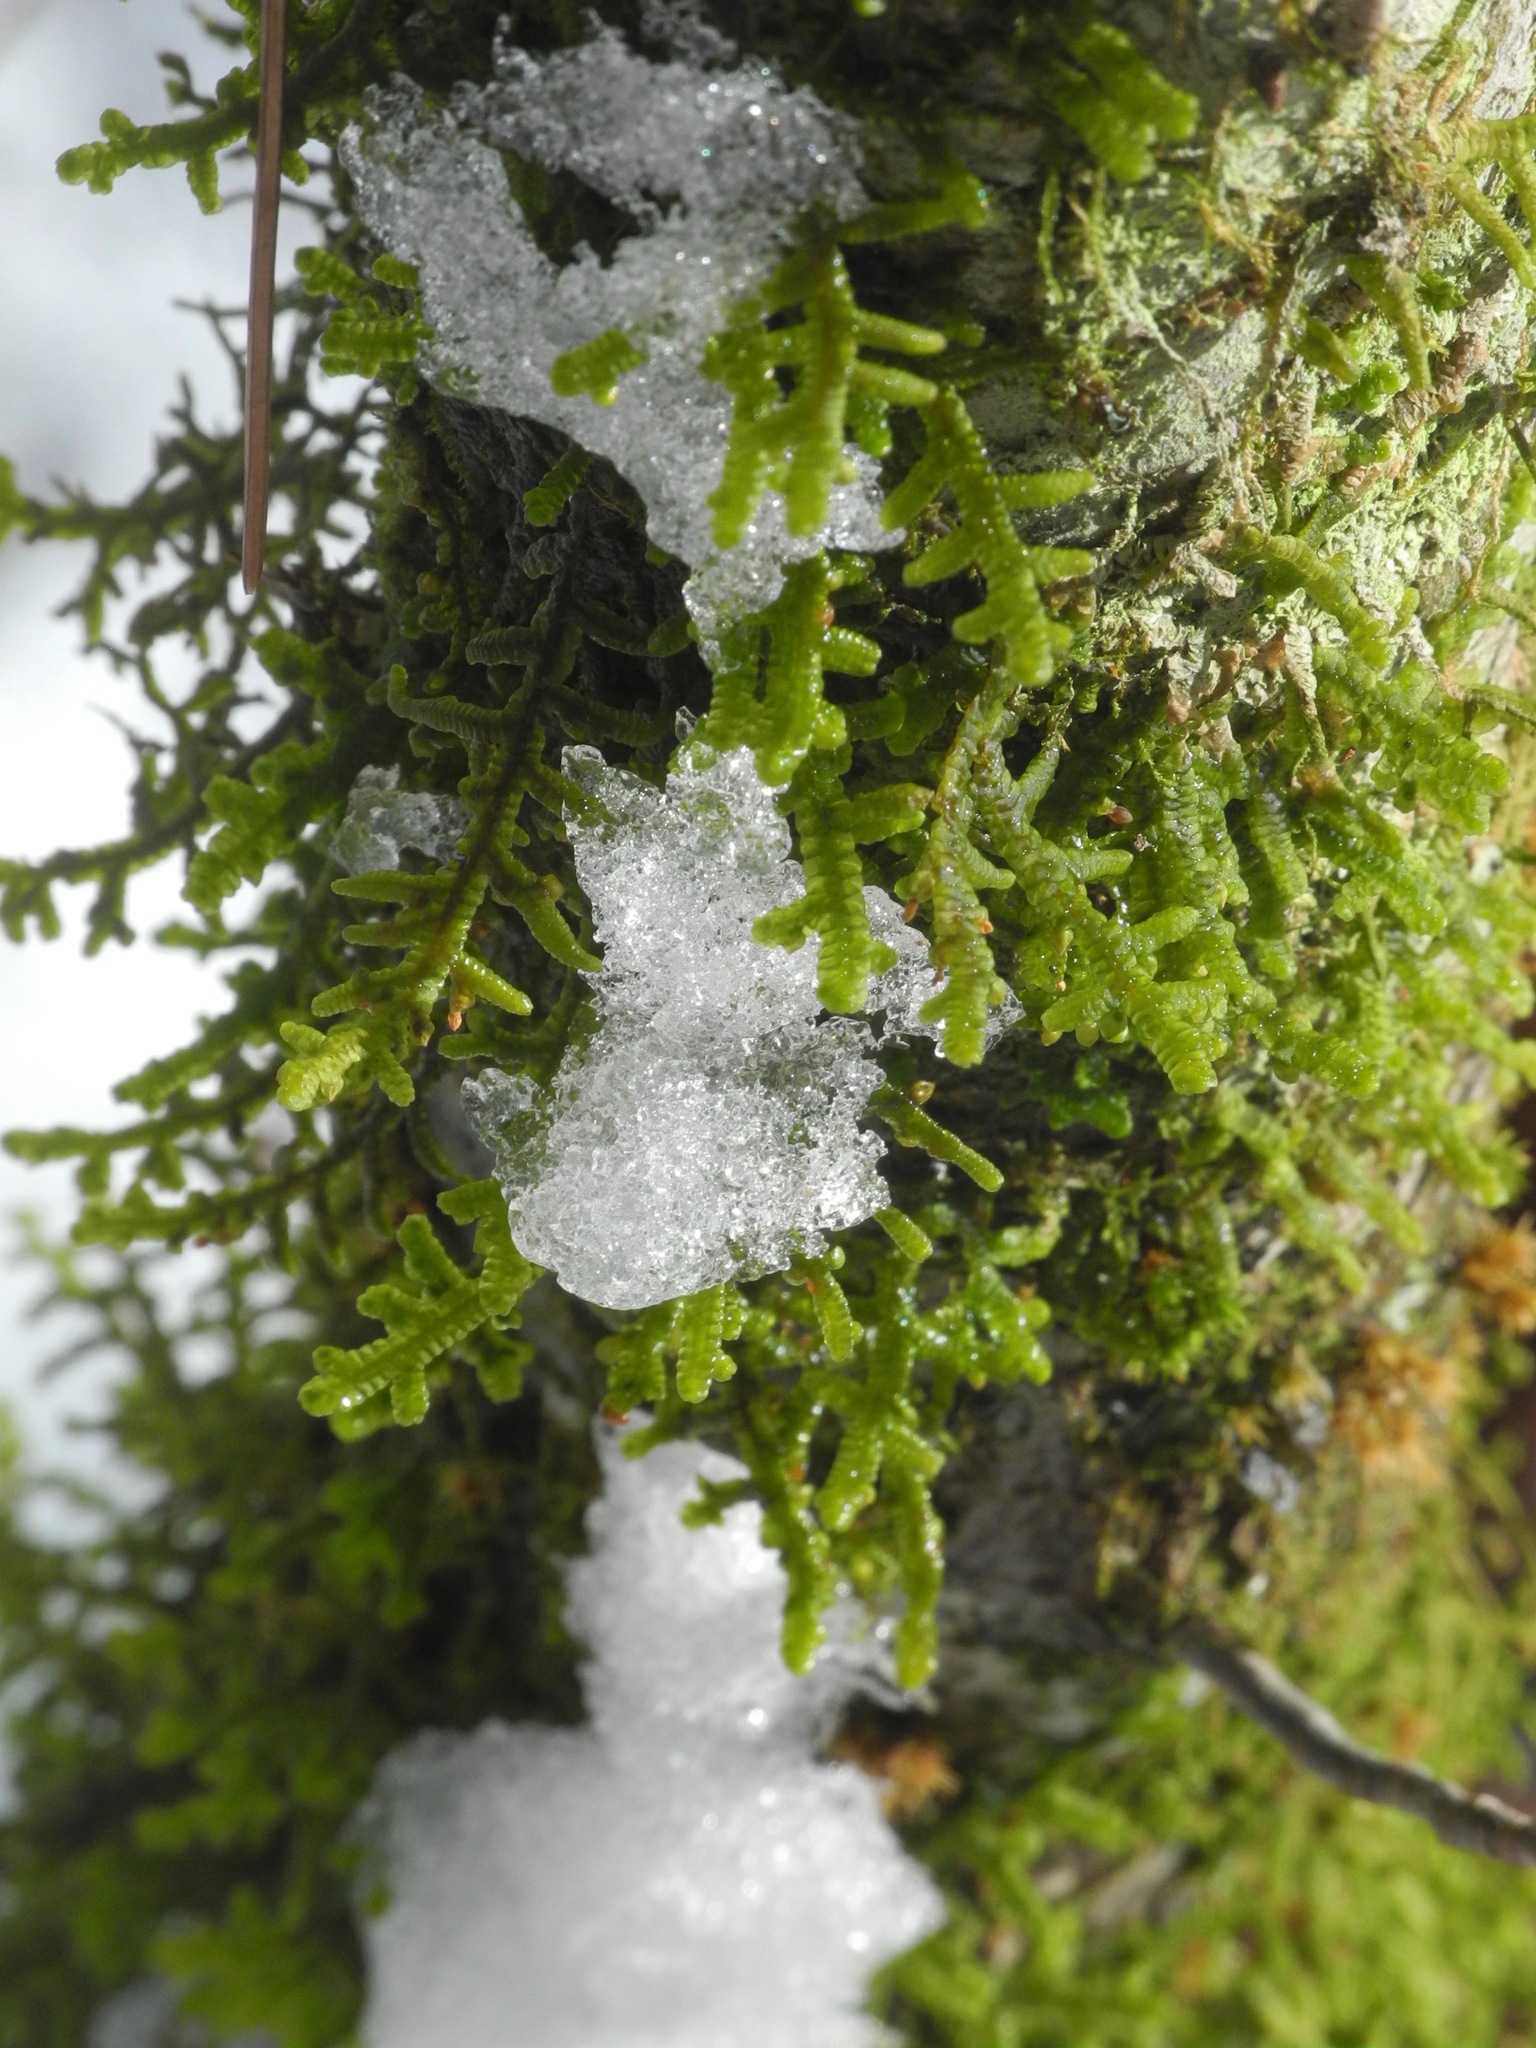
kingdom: Plantae
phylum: Marchantiophyta
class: Jungermanniopsida
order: Porellales
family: Porellaceae
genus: Porella
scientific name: Porella platyphylla
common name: Wall scalewort
